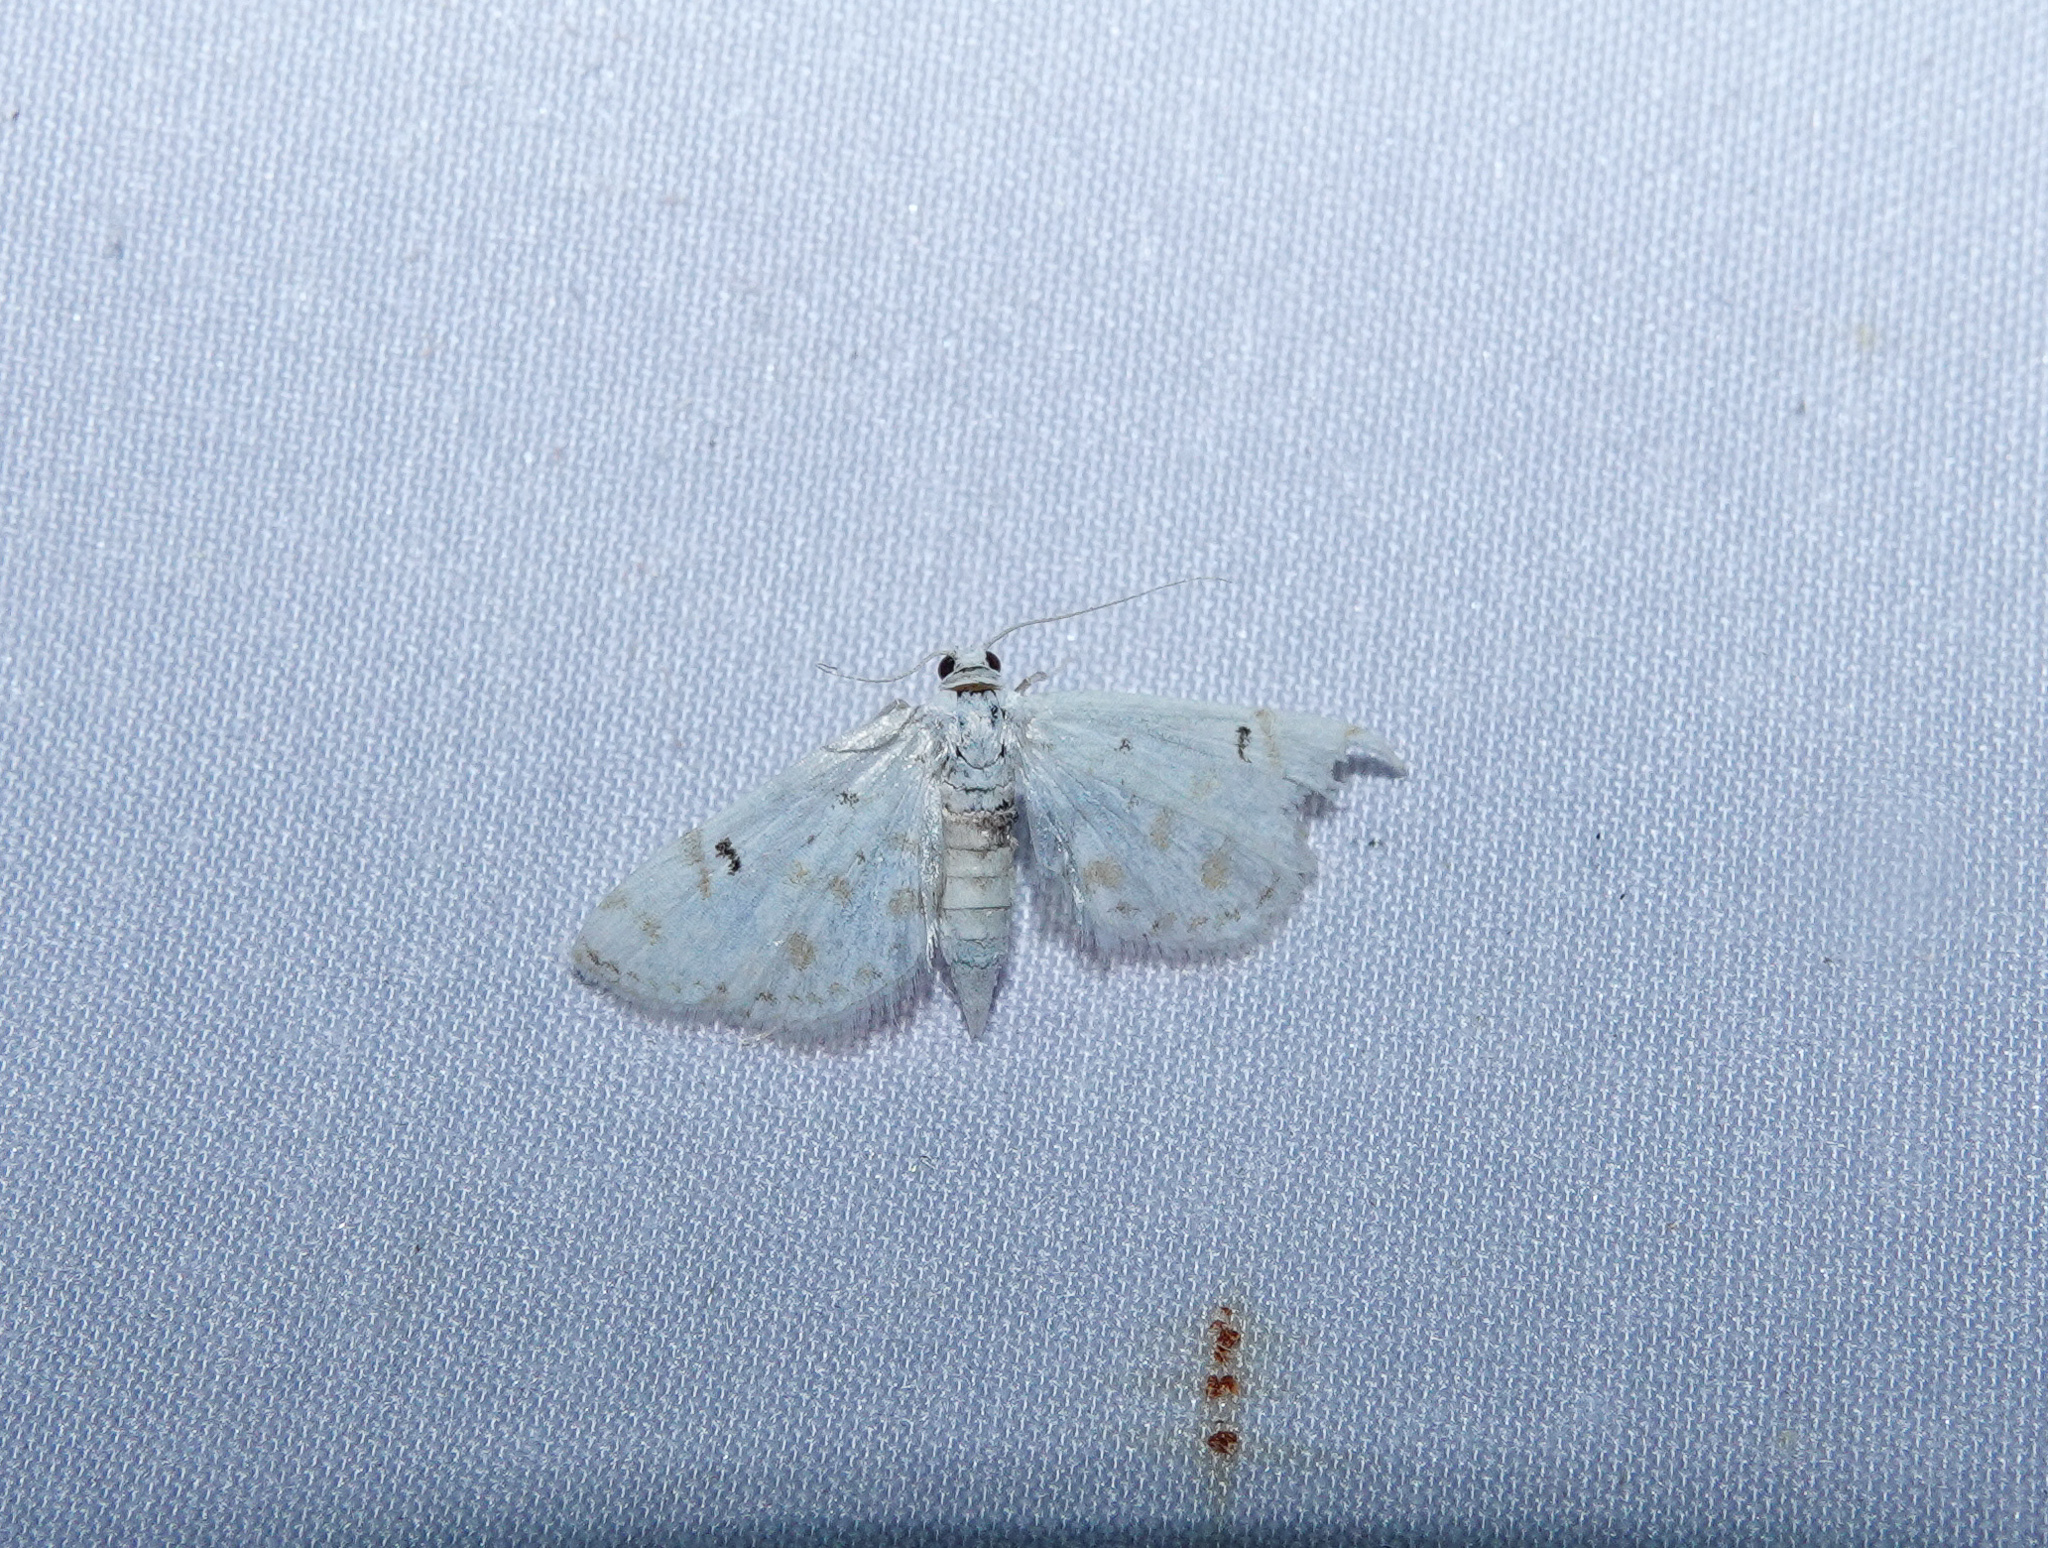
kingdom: Animalia
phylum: Arthropoda
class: Insecta
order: Lepidoptera
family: Crambidae
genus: Parapoynx
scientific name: Parapoynx stagnalis
